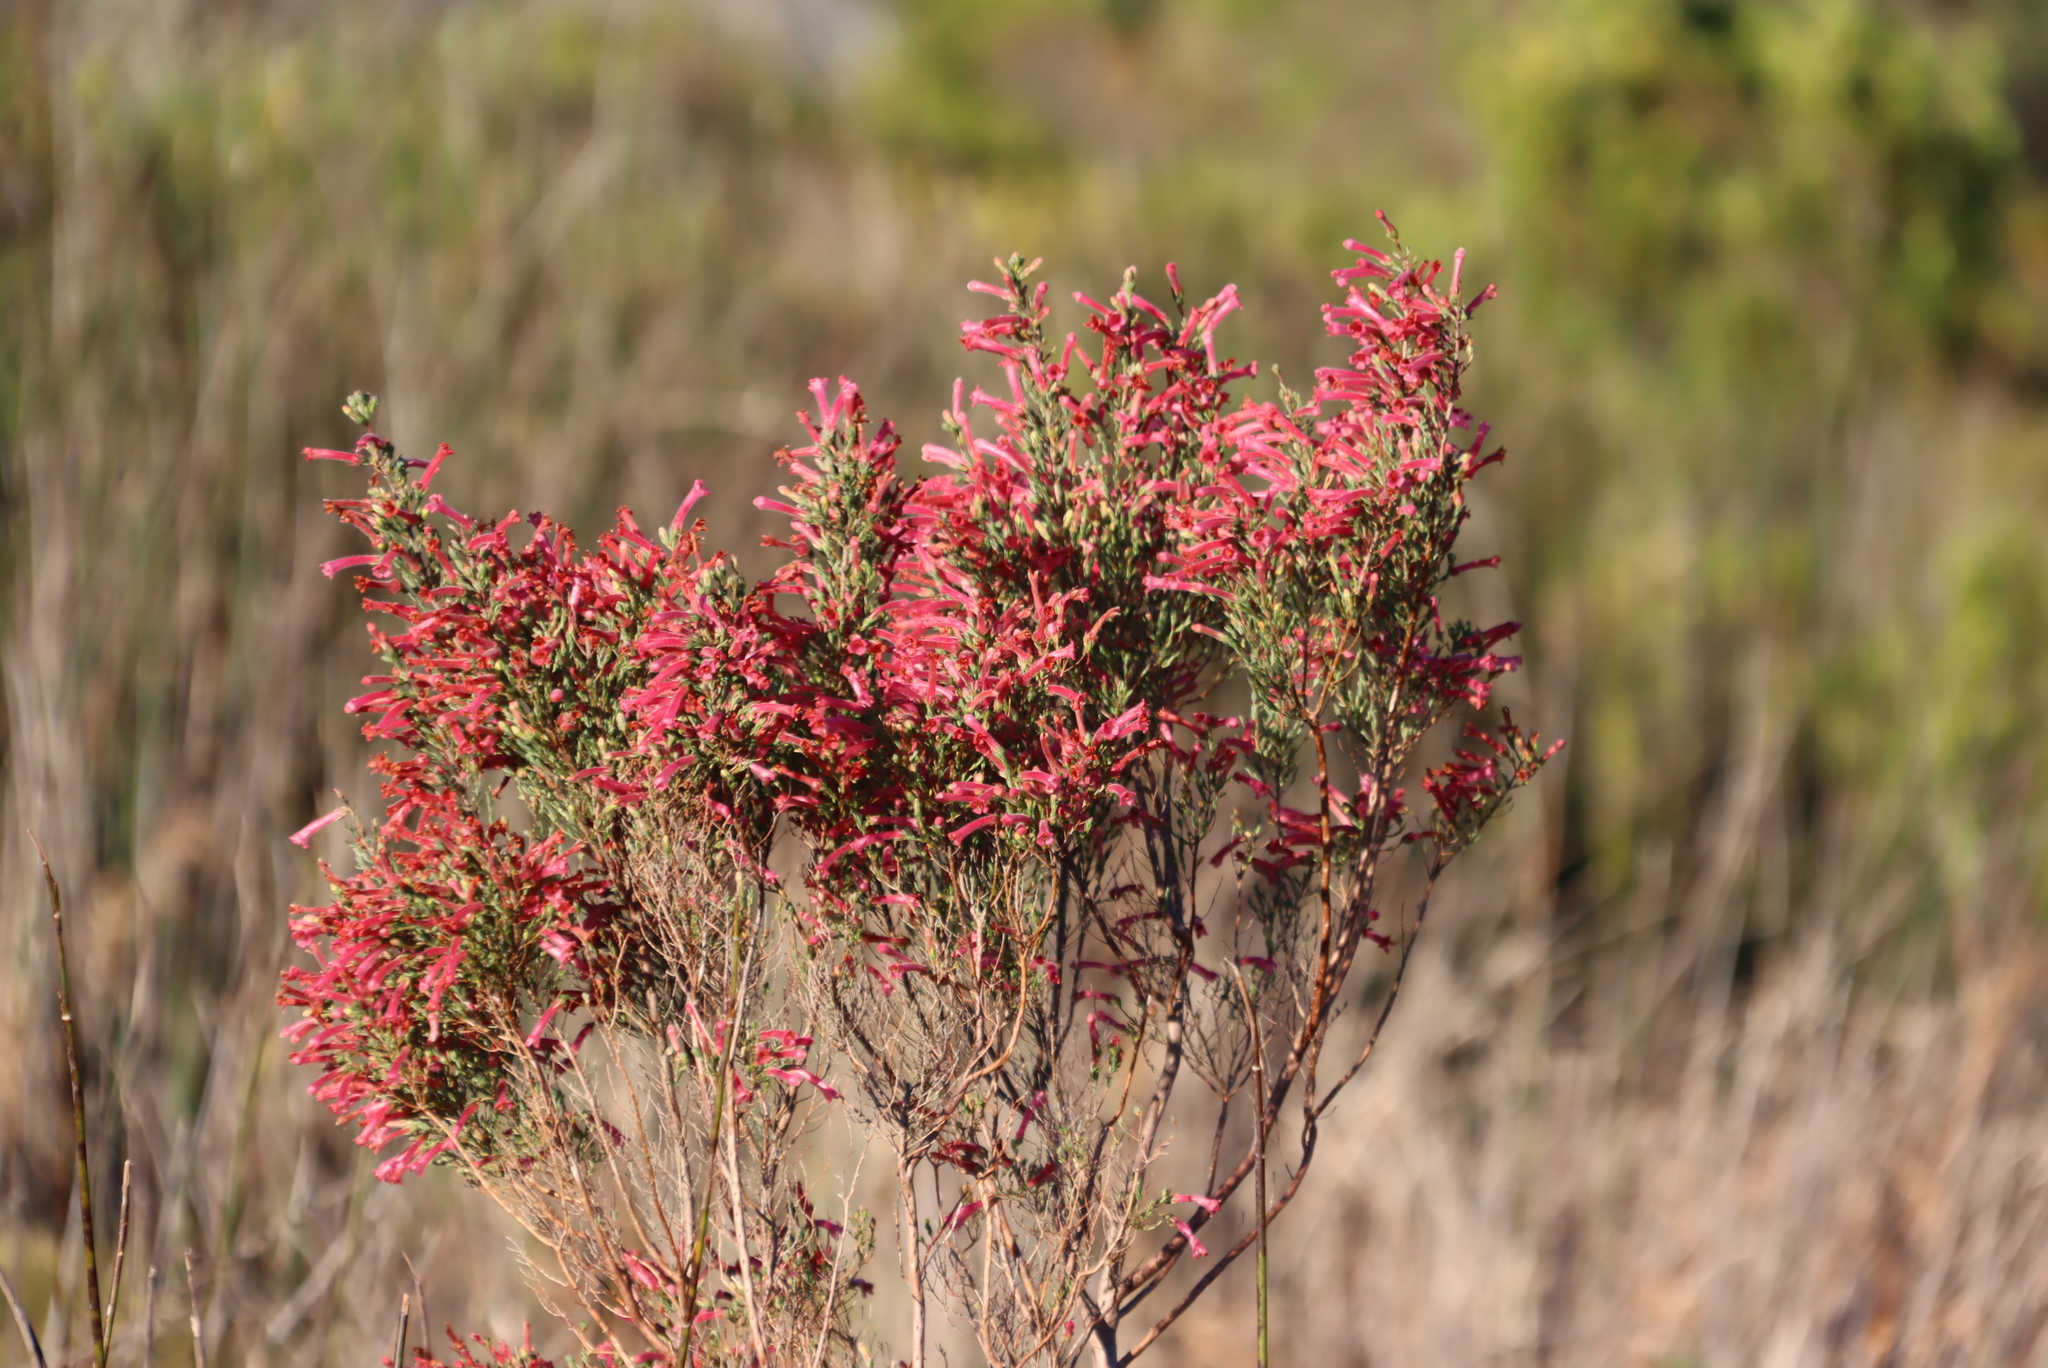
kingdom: Plantae
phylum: Tracheophyta
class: Magnoliopsida
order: Ericales
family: Ericaceae
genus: Erica
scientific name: Erica curviflora
